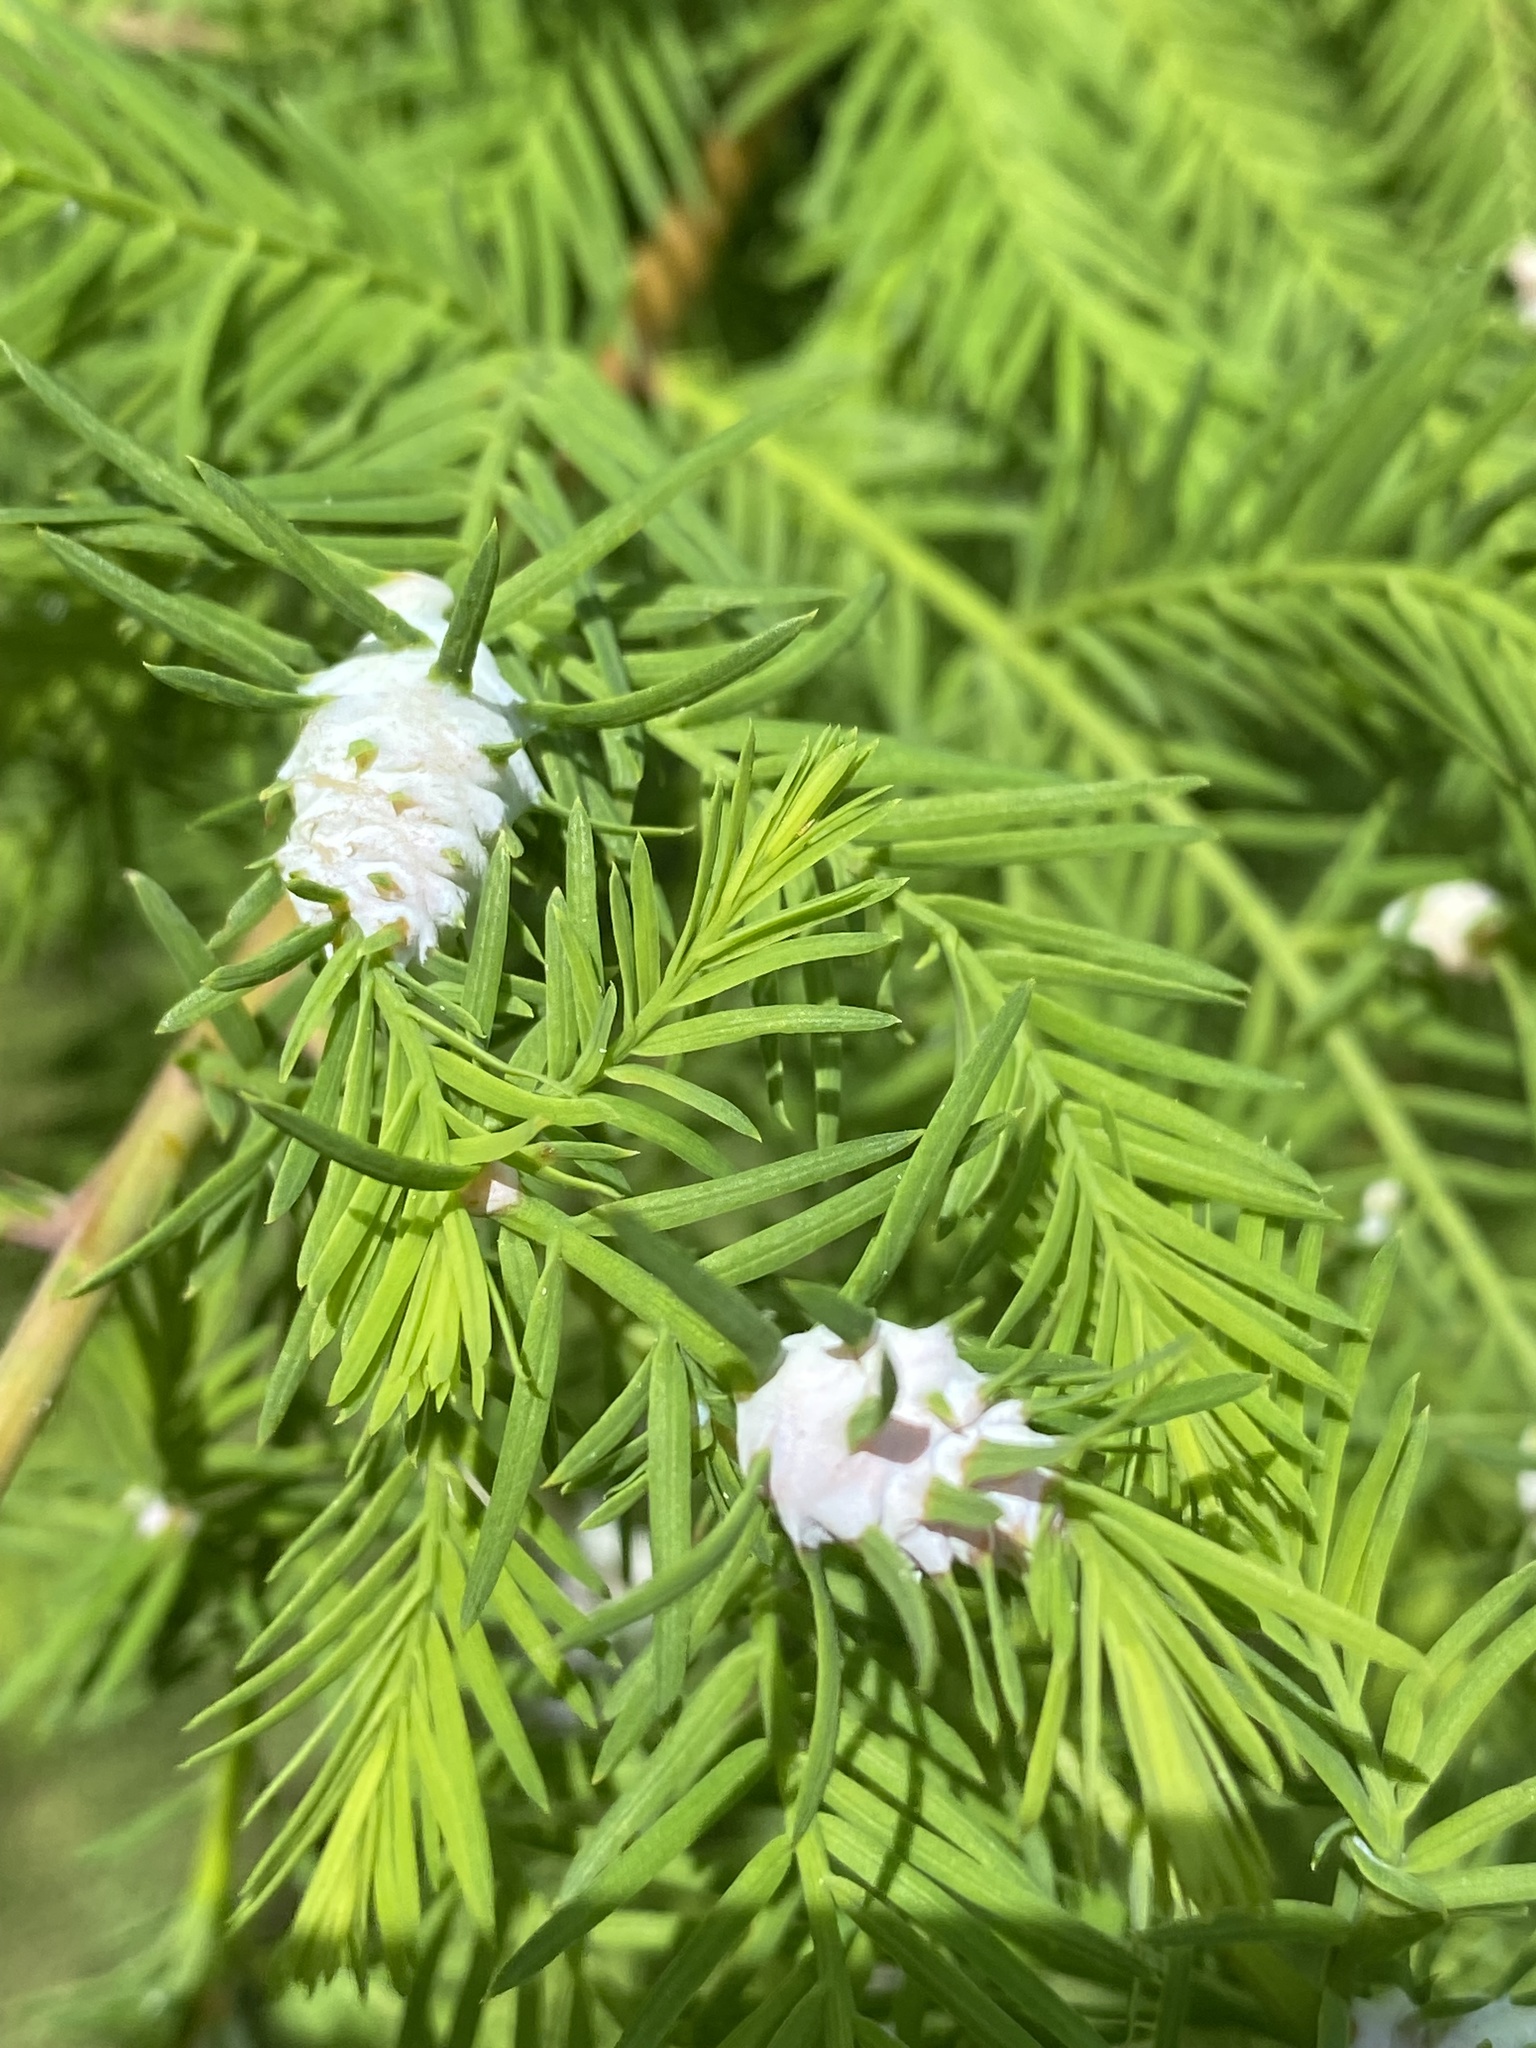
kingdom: Animalia
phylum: Arthropoda
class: Insecta
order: Diptera
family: Cecidomyiidae
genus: Taxodiomyia
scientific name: Taxodiomyia cupressiananassa
